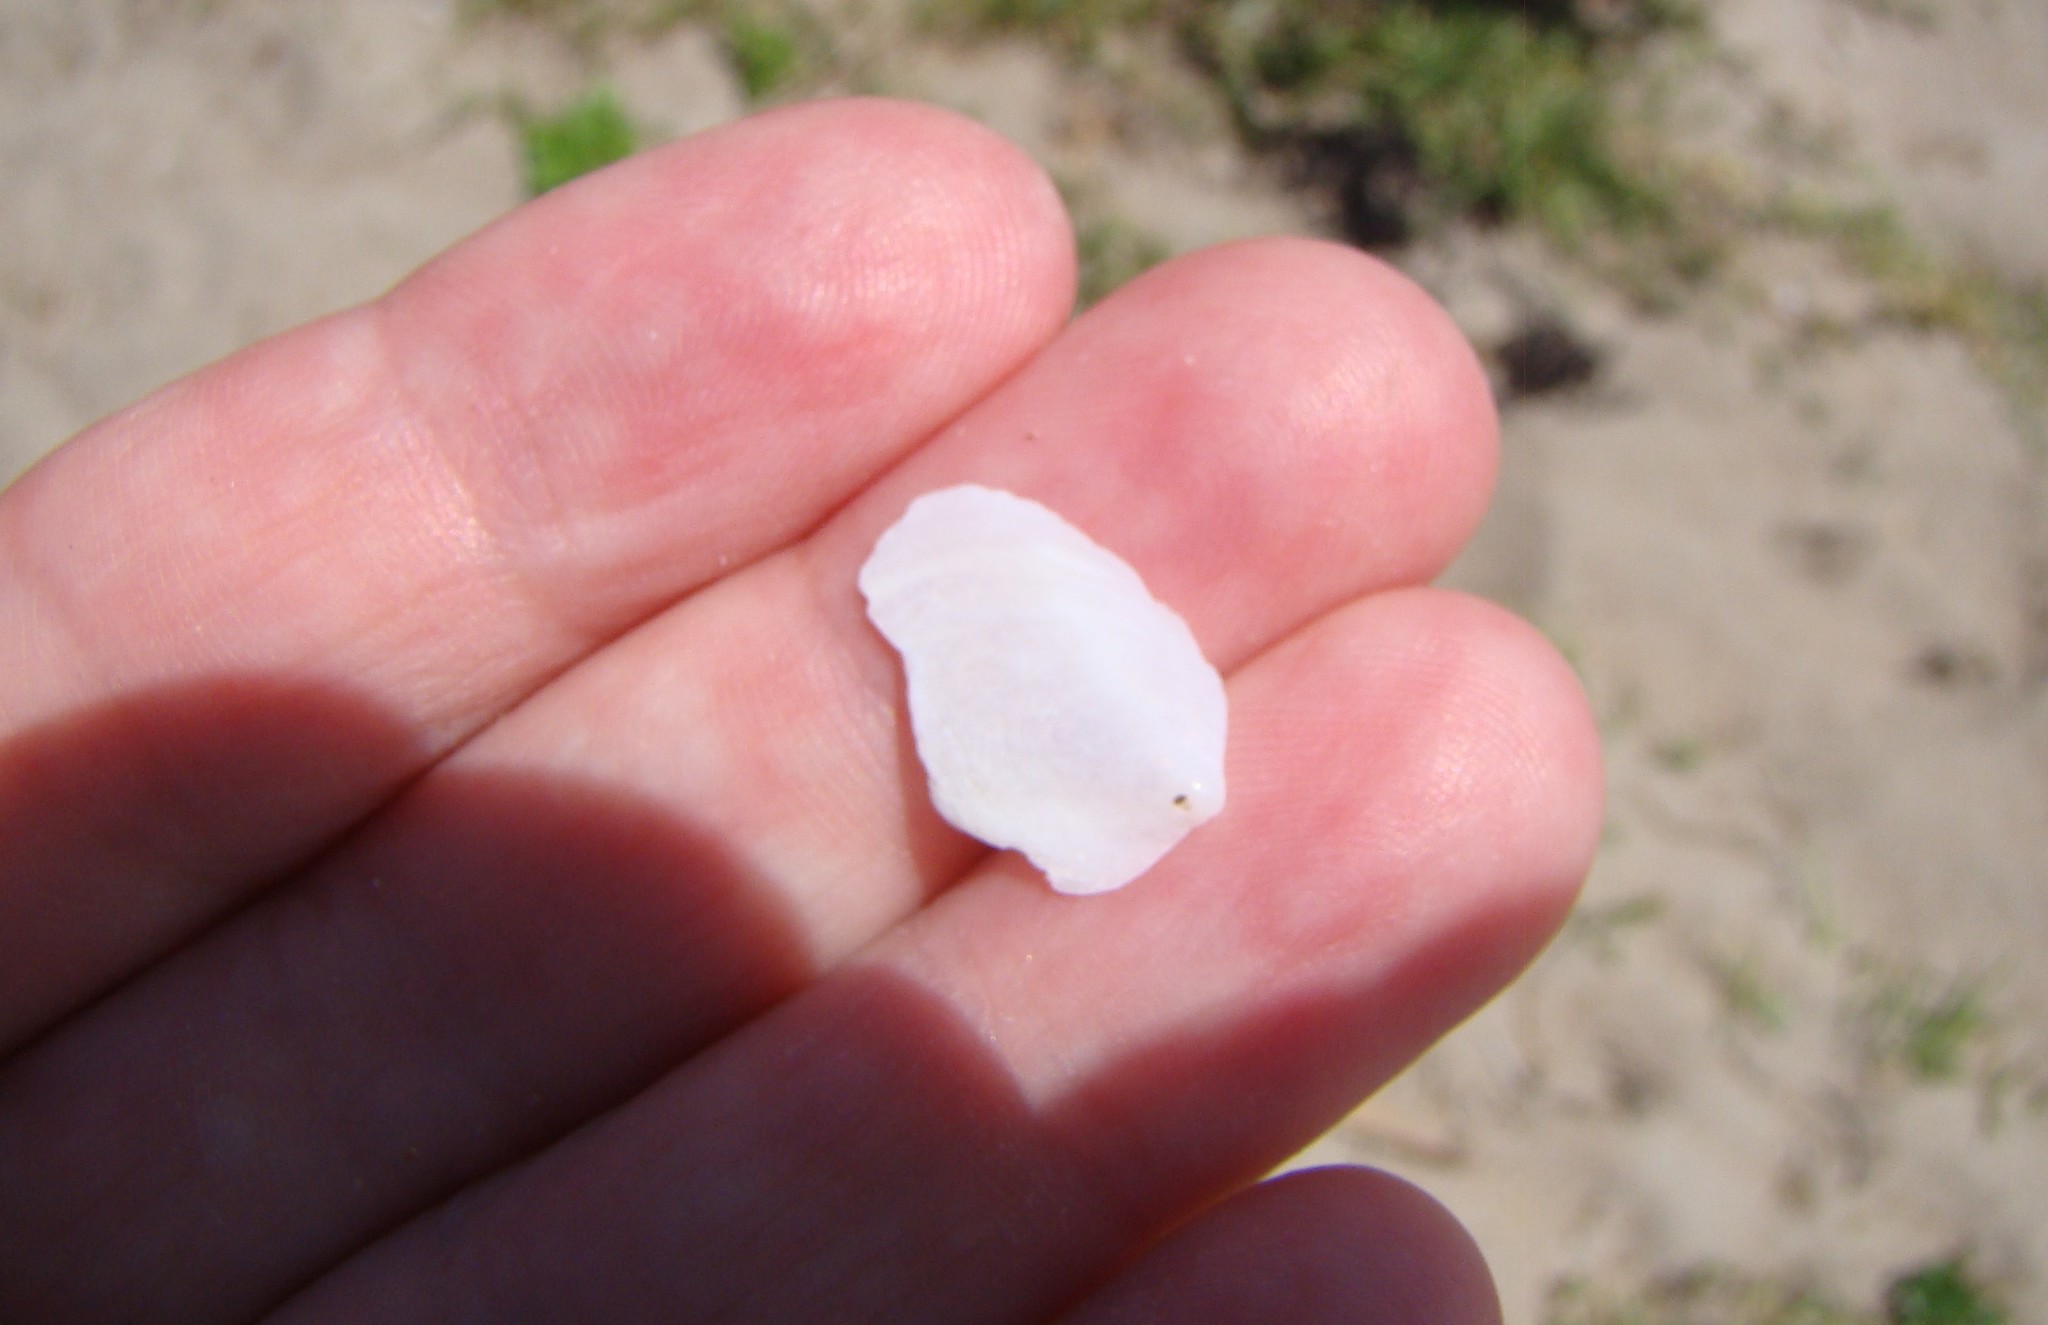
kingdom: Animalia
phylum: Mollusca
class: Gastropoda
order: Littorinimorpha
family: Calyptraeidae
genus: Maoricrypta
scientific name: Maoricrypta sodalis
